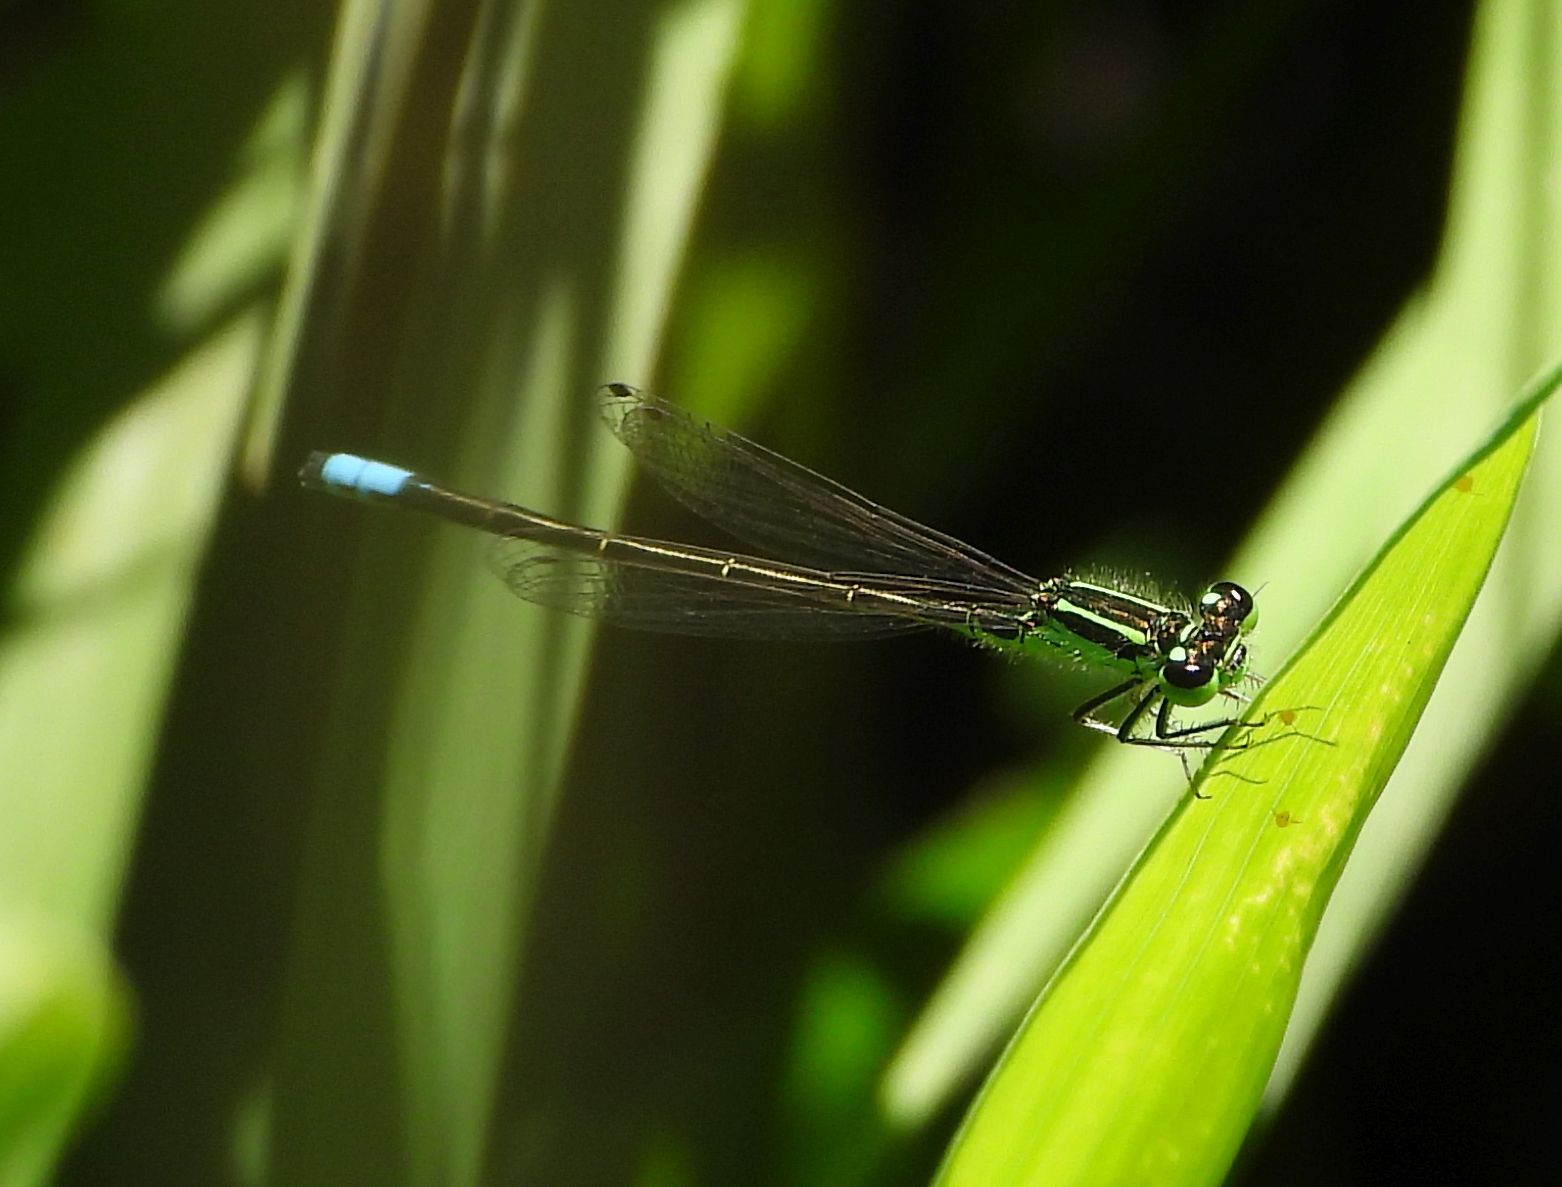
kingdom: Animalia
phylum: Arthropoda
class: Insecta
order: Odonata
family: Coenagrionidae
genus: Ischnura
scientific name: Ischnura verticalis
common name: Eastern forktail
